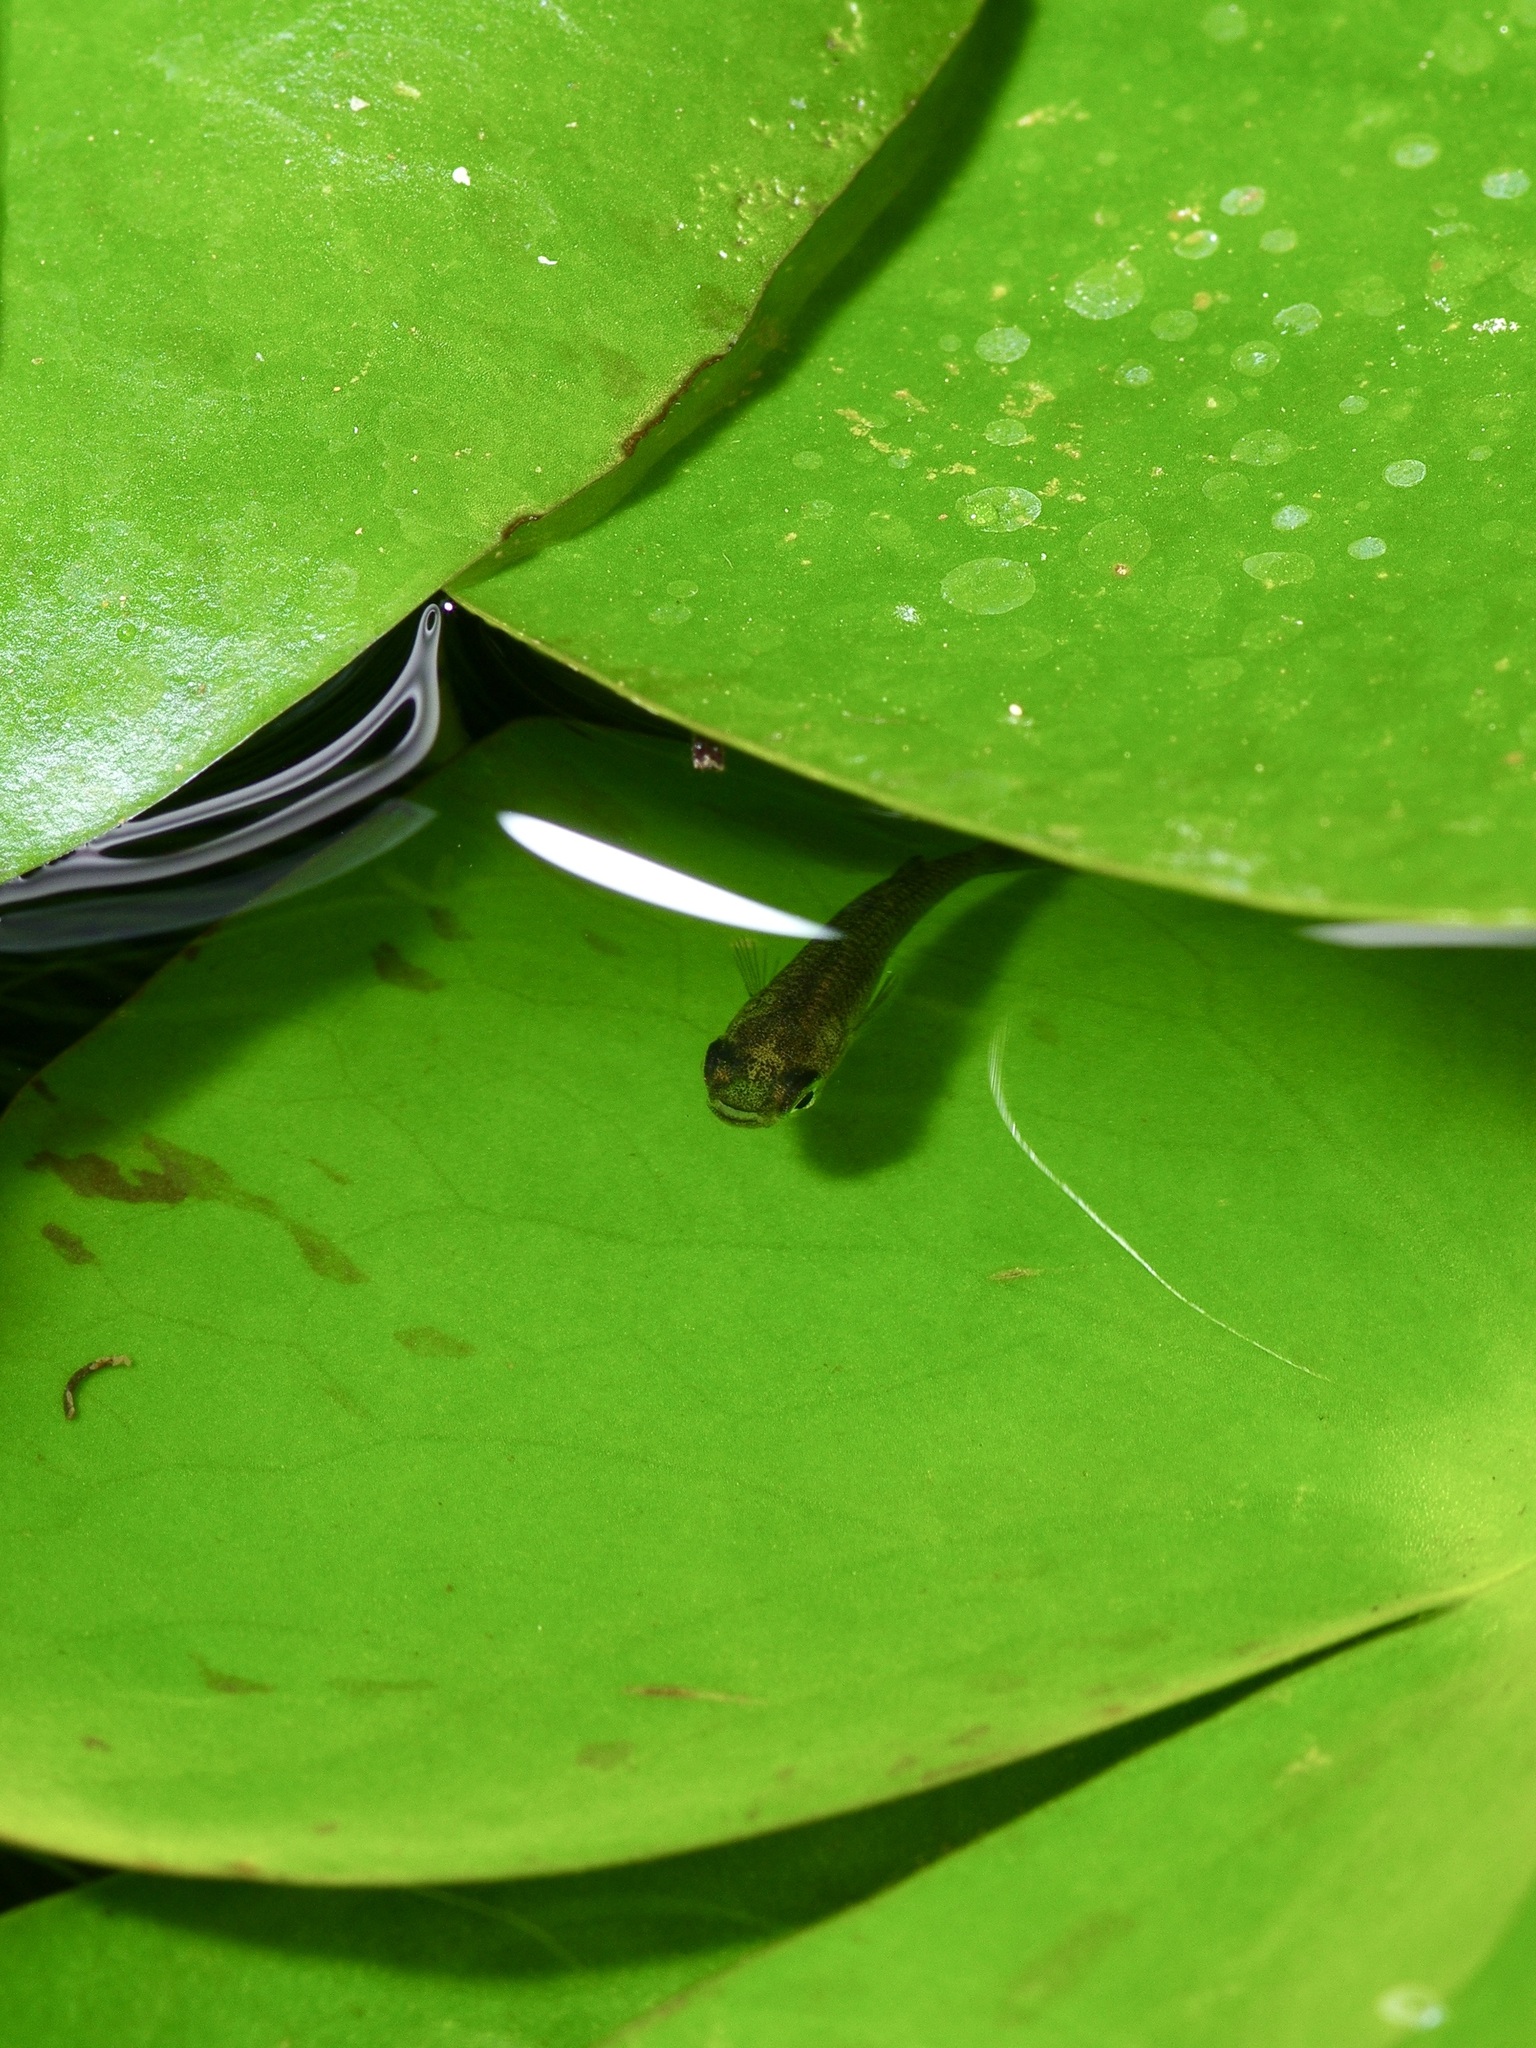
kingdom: Animalia
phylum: Chordata
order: Cyprinodontiformes
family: Poeciliidae
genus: Gambusia
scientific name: Gambusia affinis
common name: Mosquitofish
